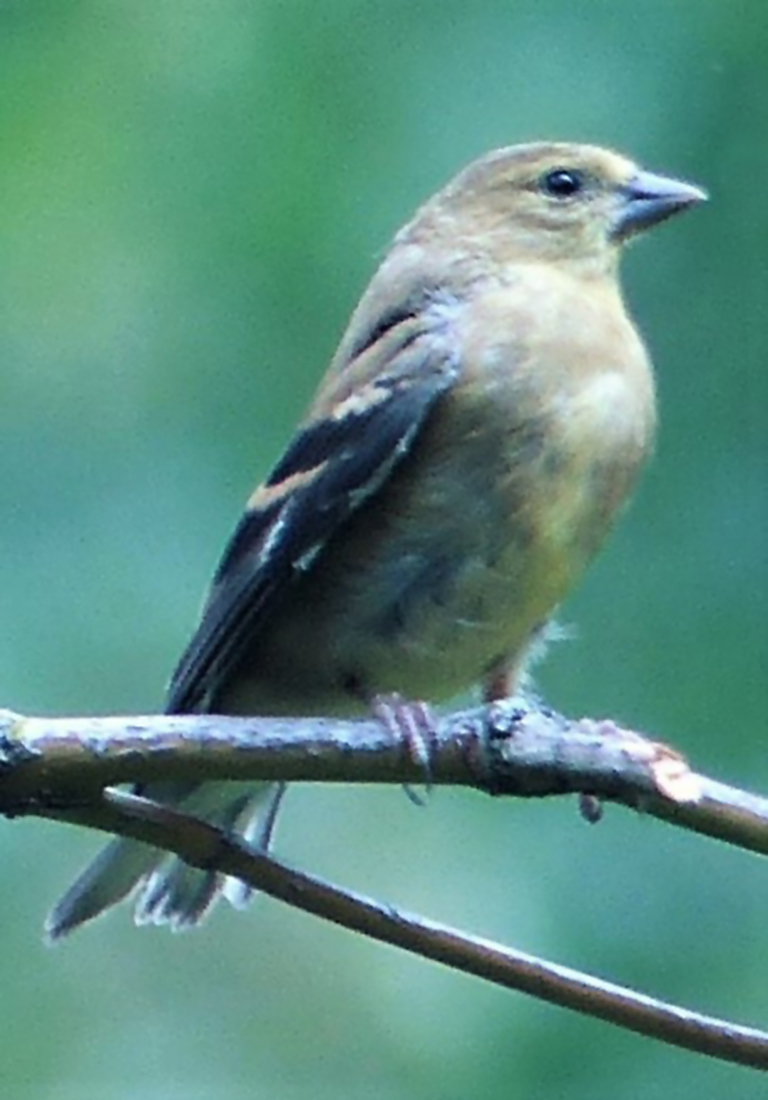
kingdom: Animalia
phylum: Chordata
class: Aves
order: Passeriformes
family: Fringillidae
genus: Spinus
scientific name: Spinus tristis
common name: American goldfinch
